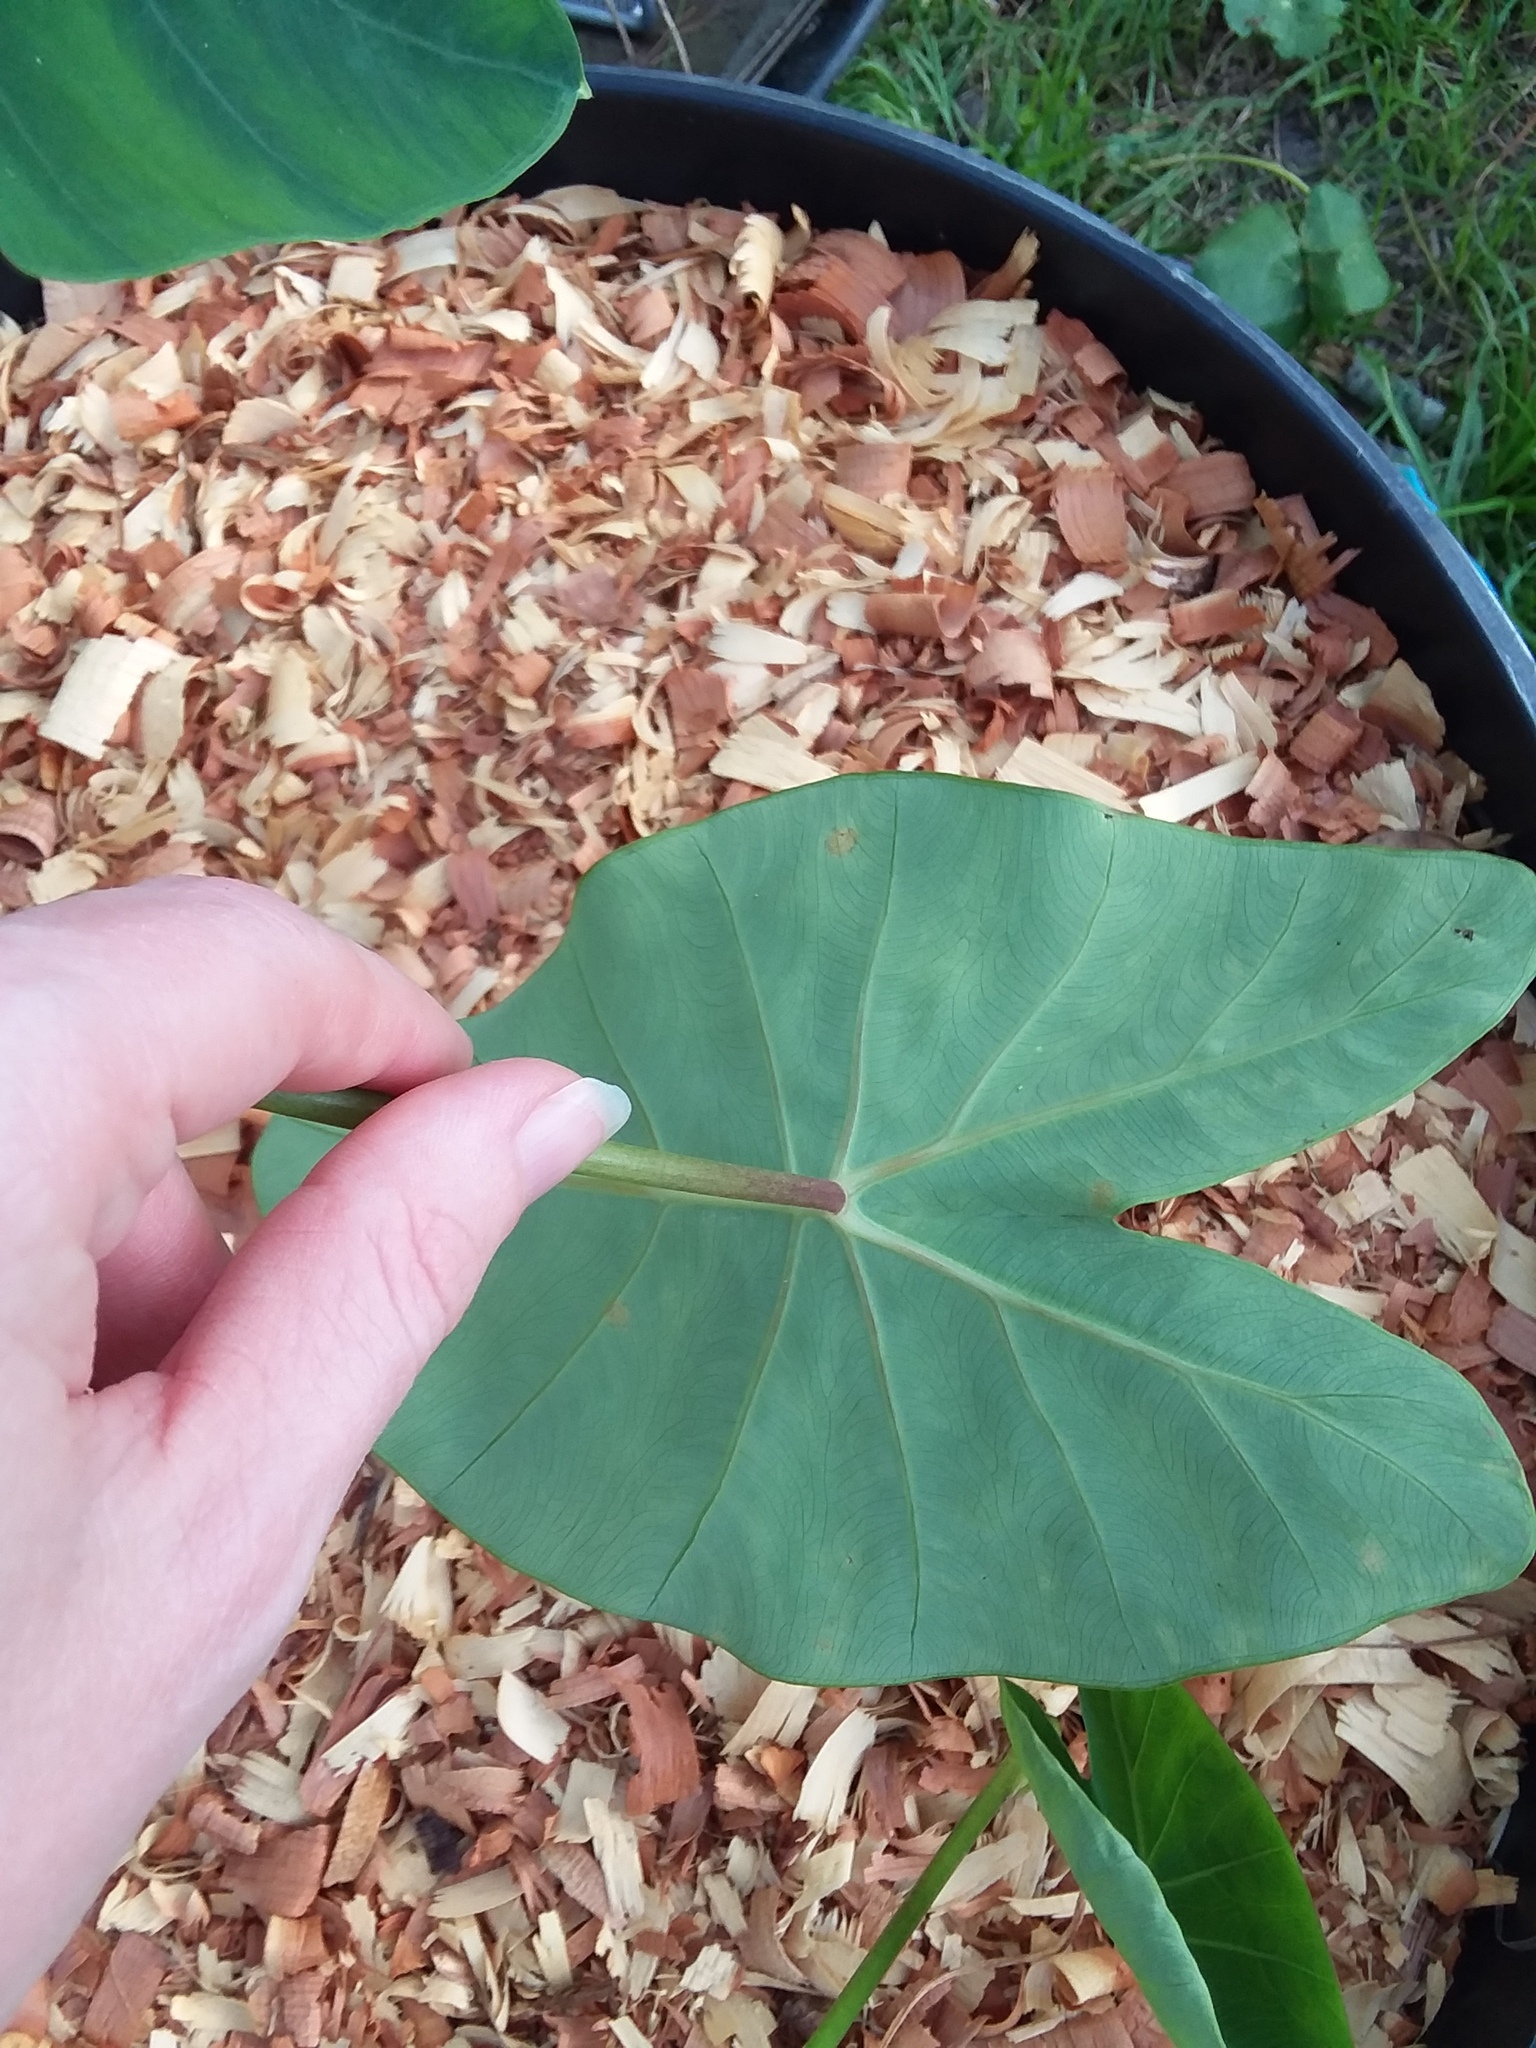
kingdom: Plantae
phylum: Tracheophyta
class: Liliopsida
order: Alismatales
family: Araceae
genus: Colocasia
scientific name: Colocasia esculenta
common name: Taro
